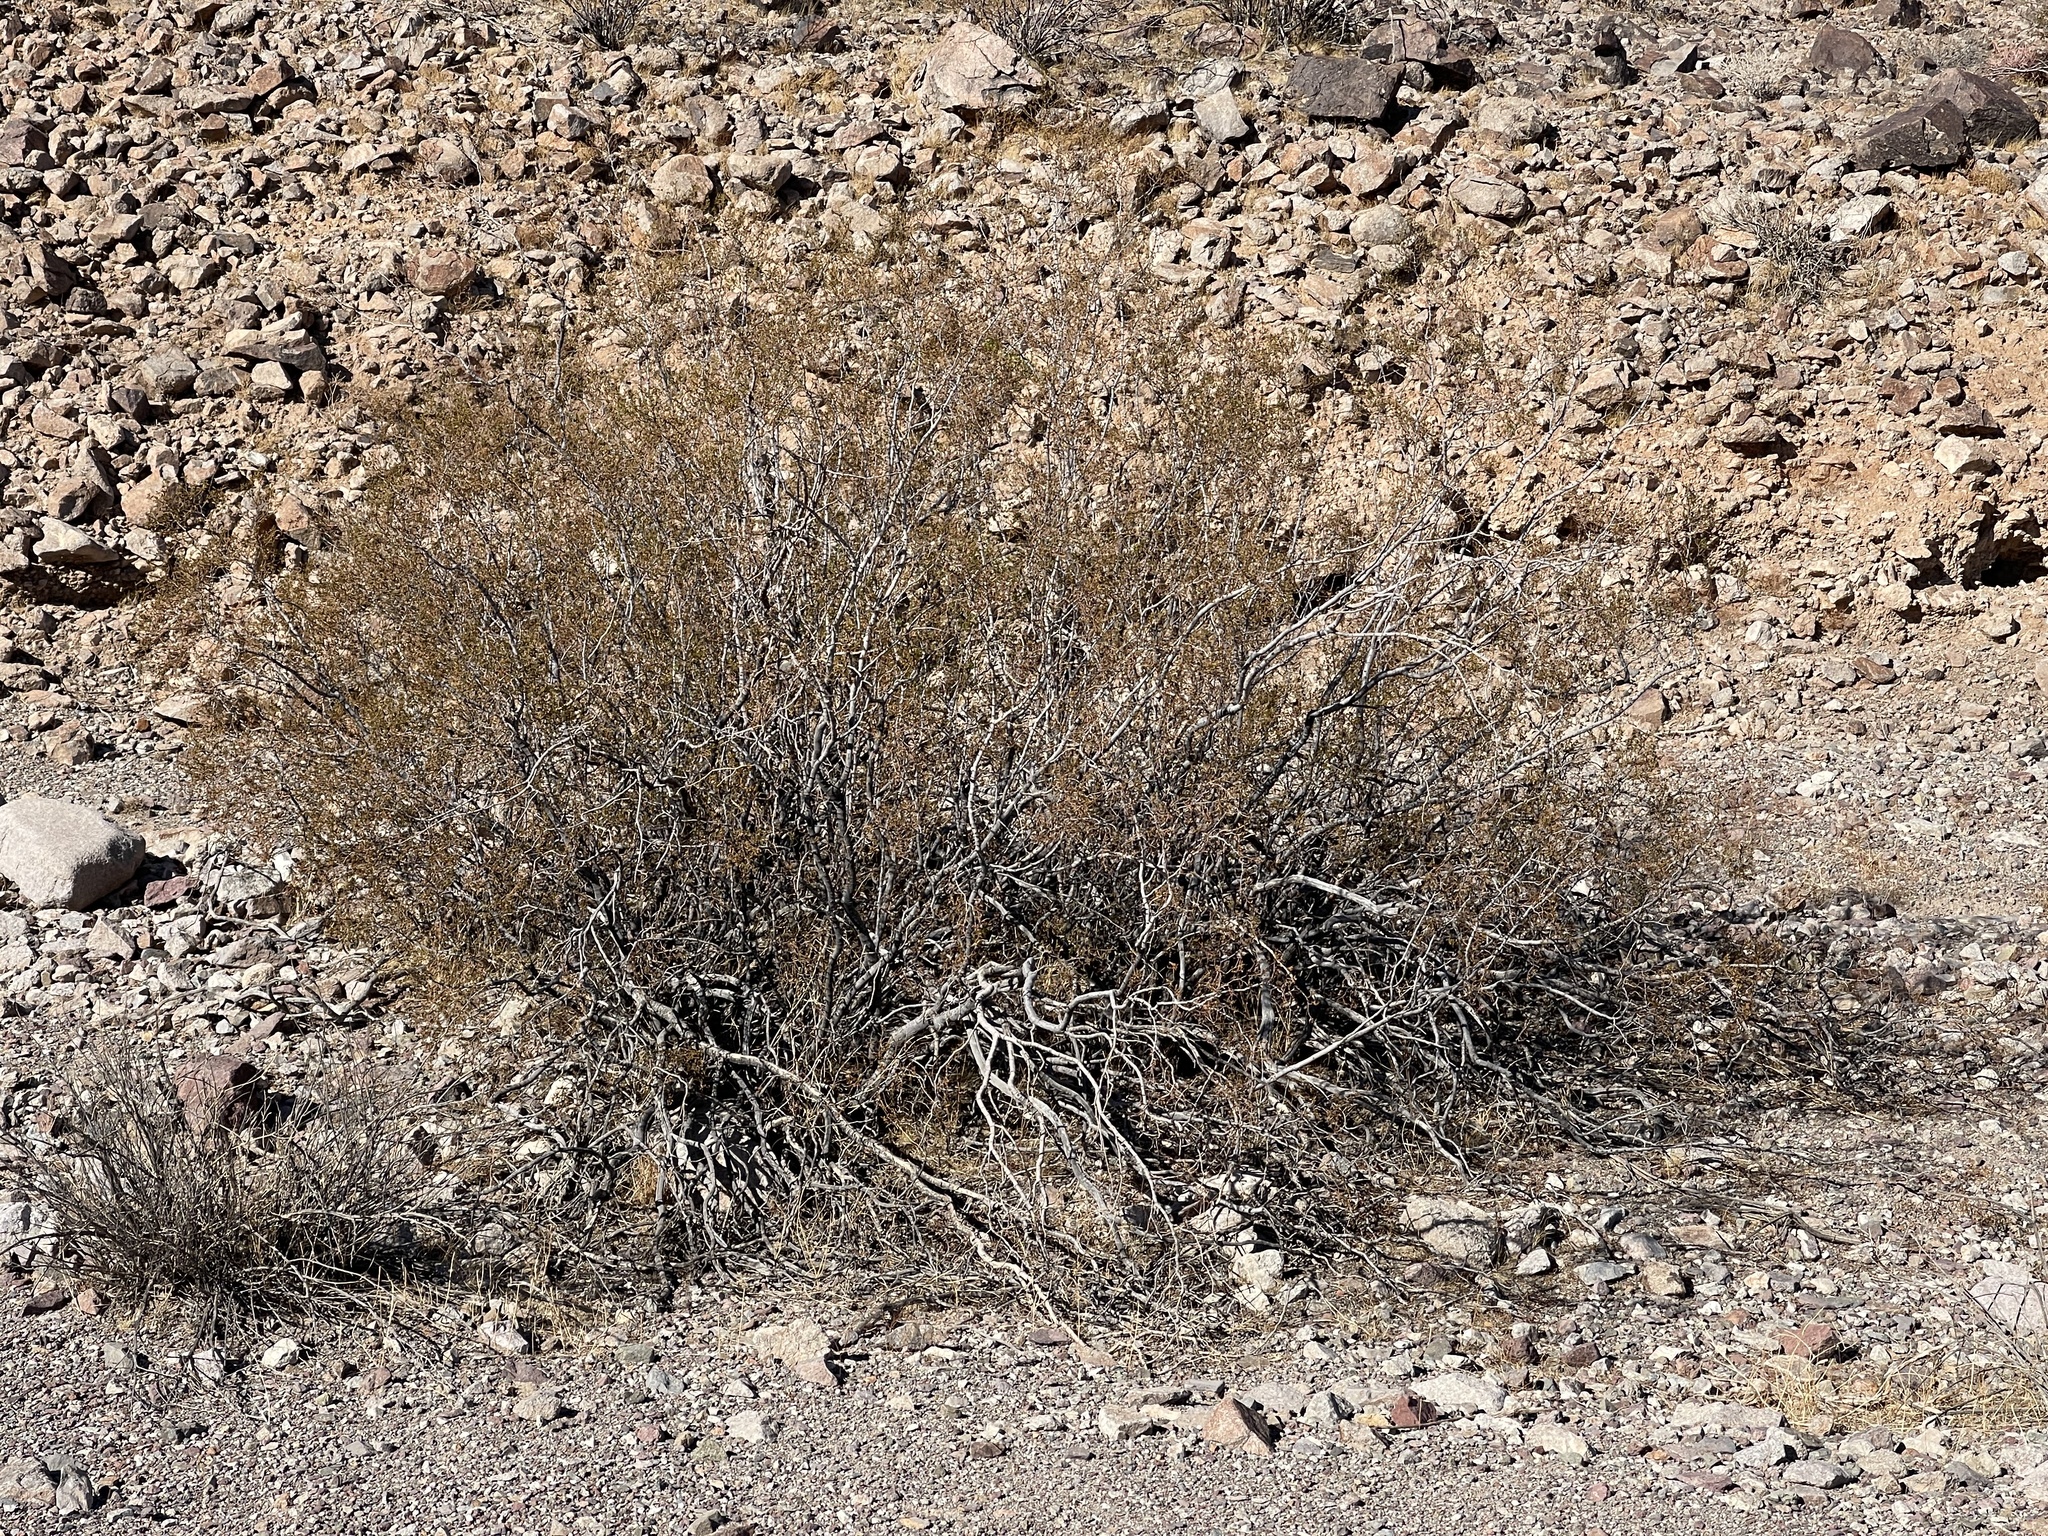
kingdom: Plantae
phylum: Tracheophyta
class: Magnoliopsida
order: Zygophyllales
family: Zygophyllaceae
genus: Larrea
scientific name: Larrea tridentata
